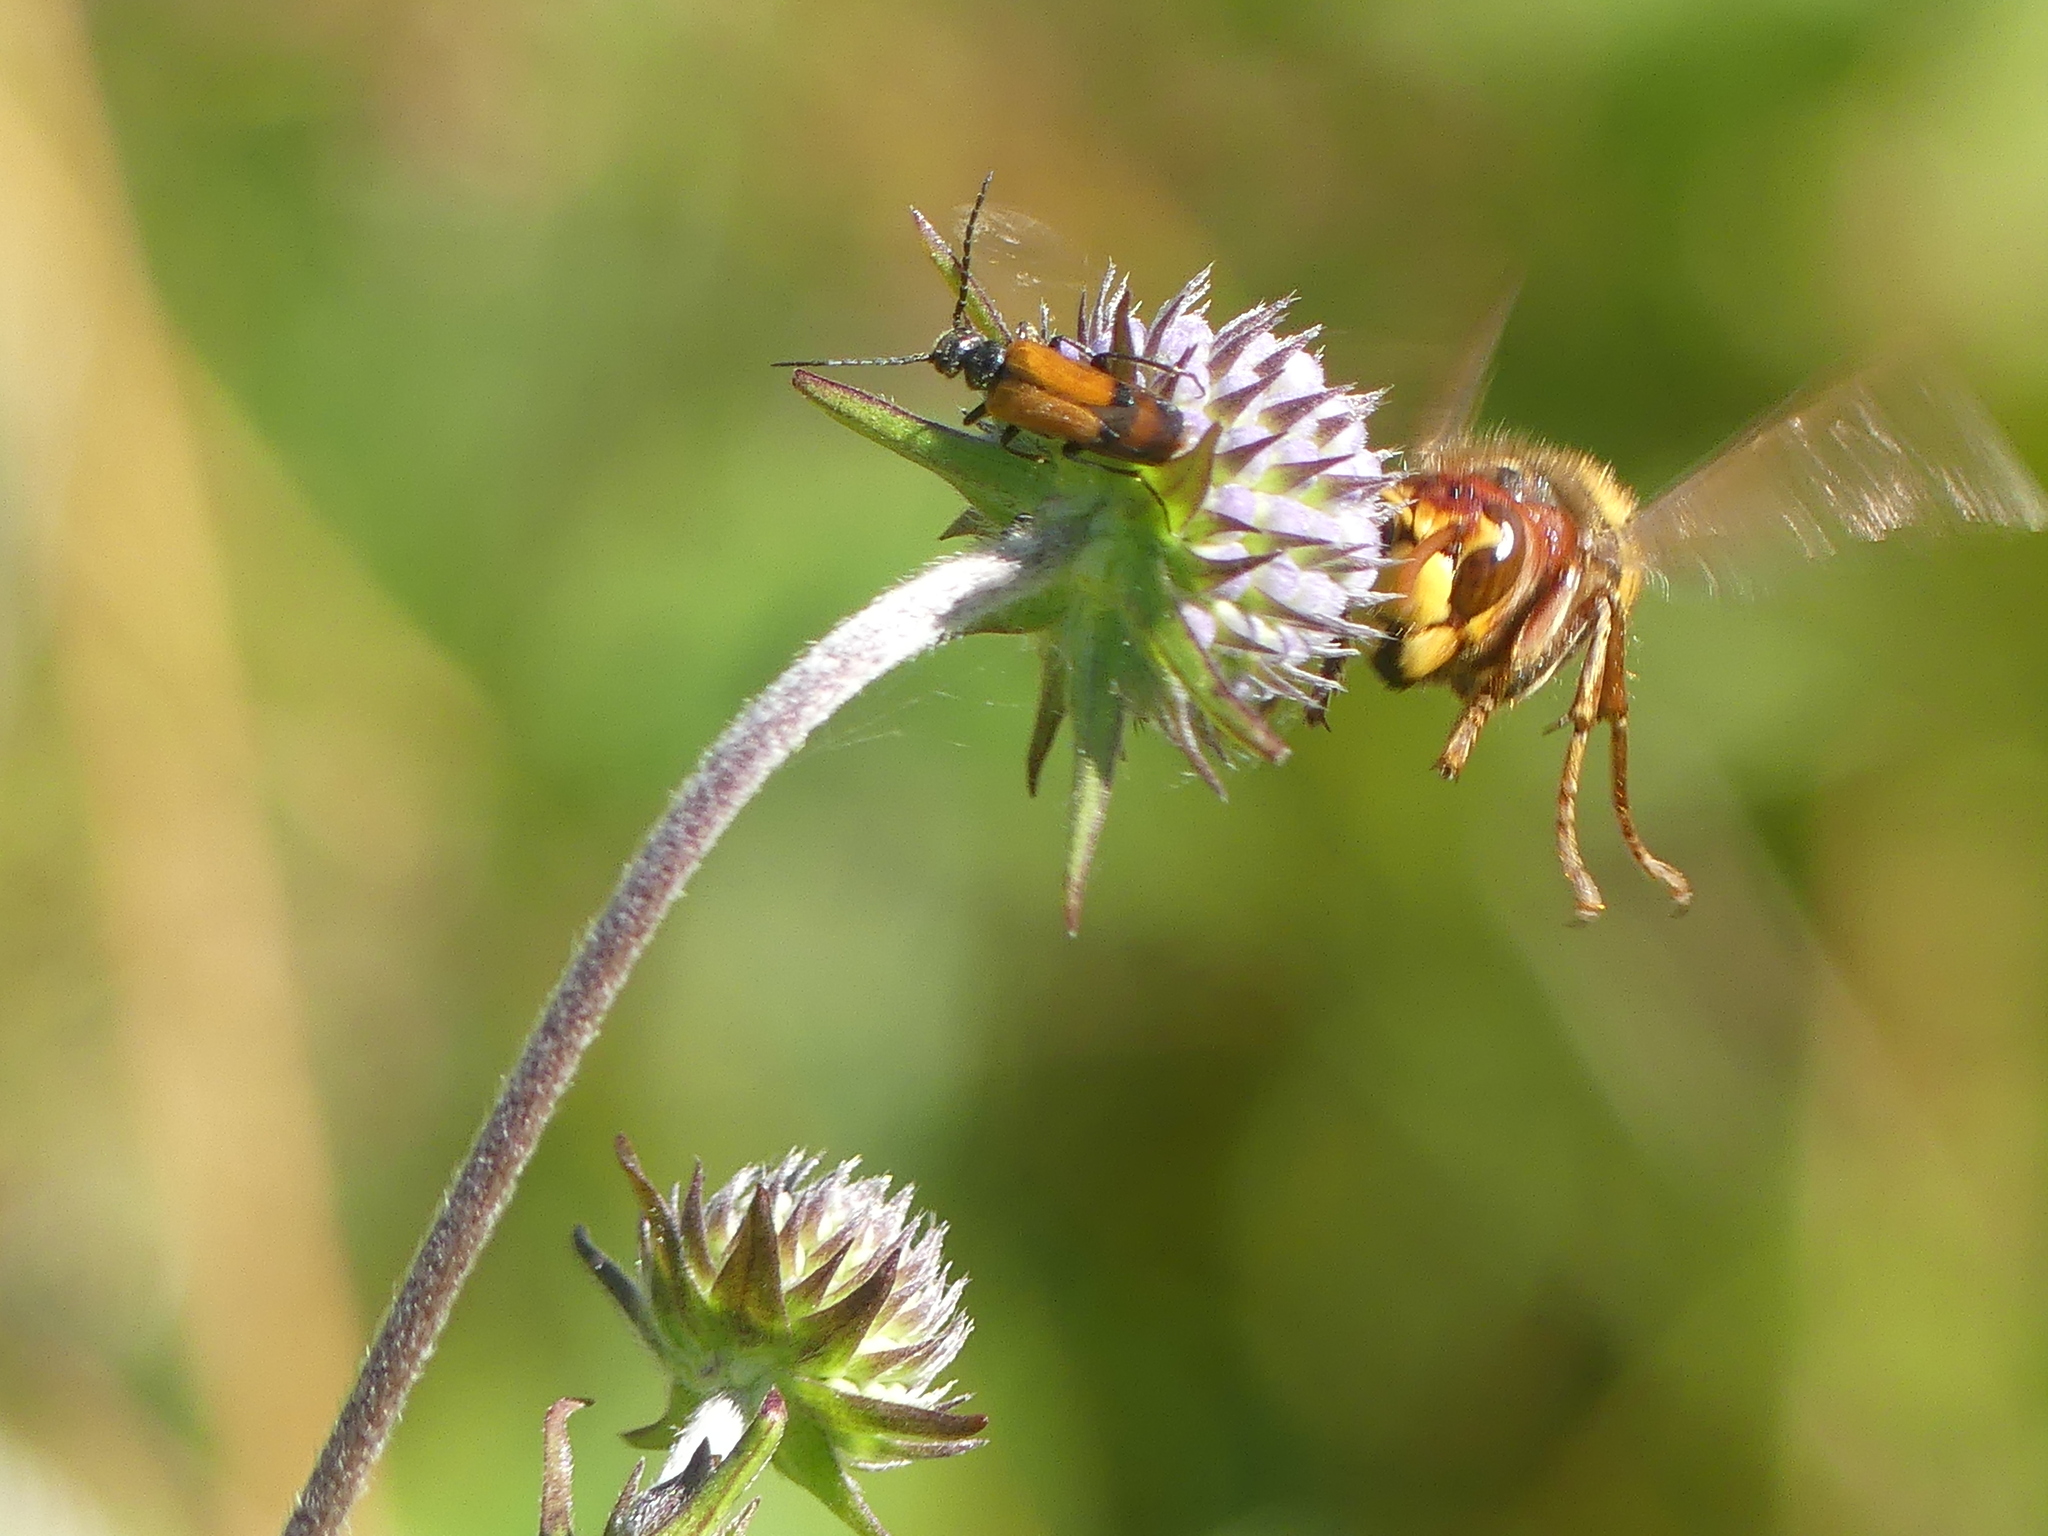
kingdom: Animalia
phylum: Arthropoda
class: Insecta
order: Hymenoptera
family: Vespidae
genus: Vespa
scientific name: Vespa crabro
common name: Hornet
